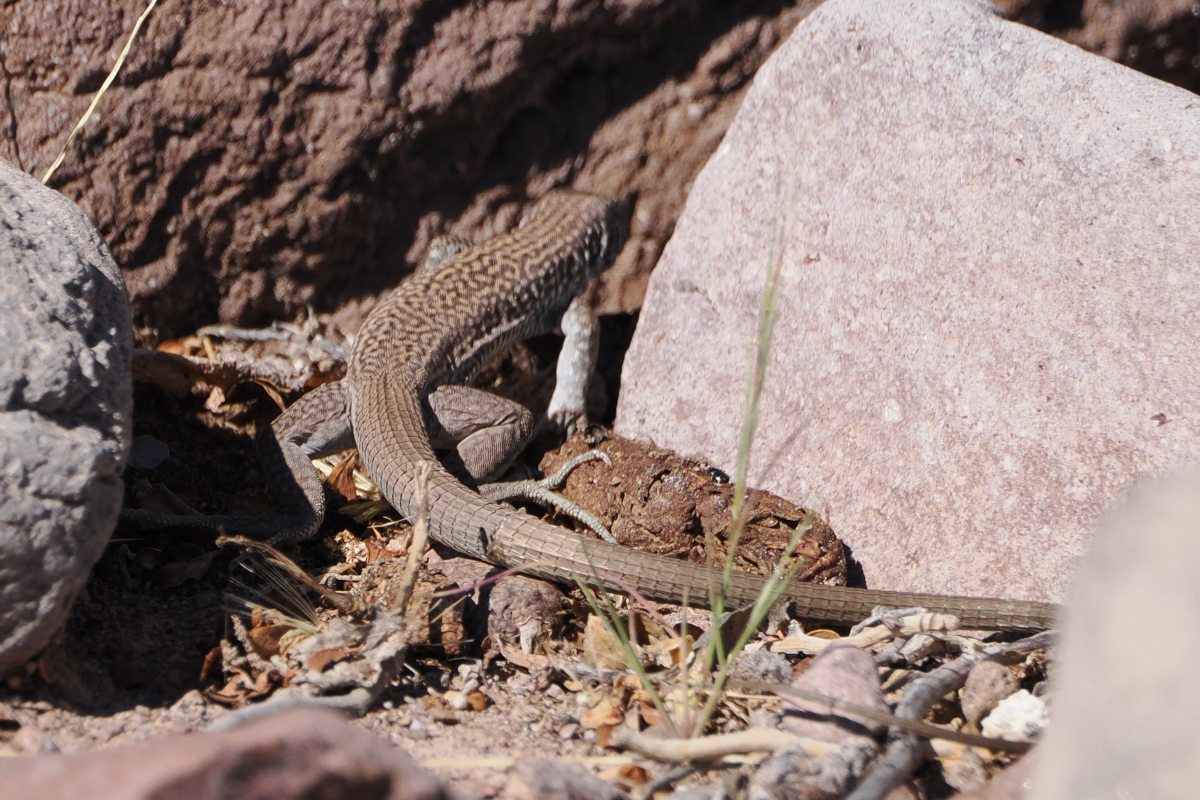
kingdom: Animalia
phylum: Chordata
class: Squamata
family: Teiidae
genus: Aspidoscelis
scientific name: Aspidoscelis tigris
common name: Tiger whiptail
